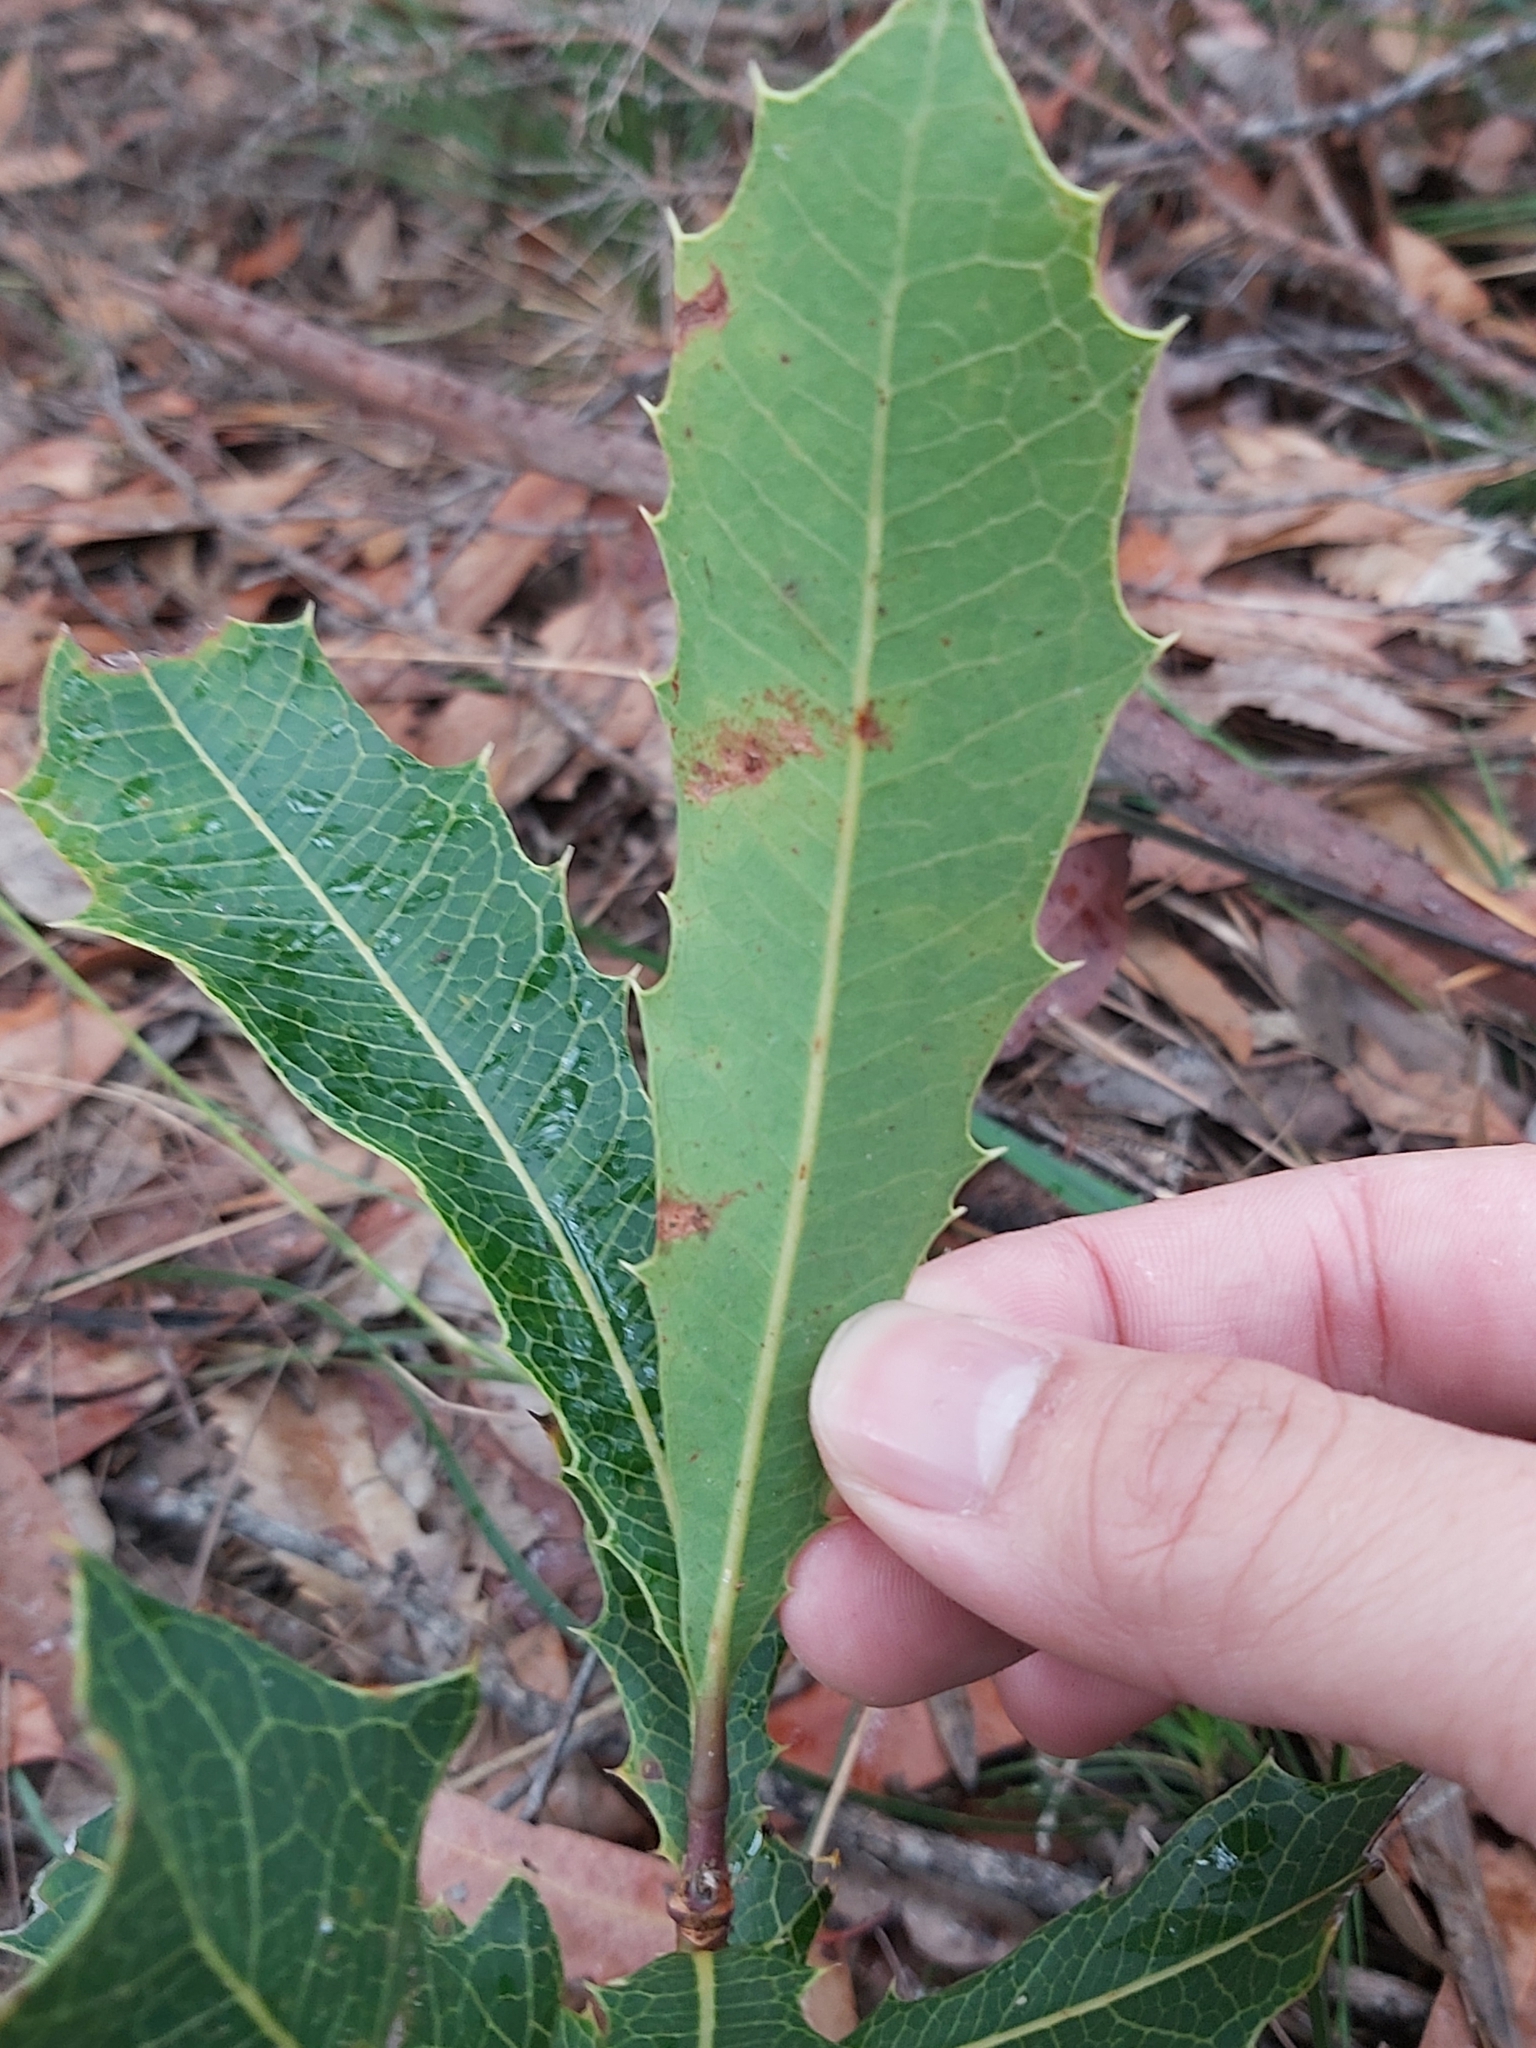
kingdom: Plantae
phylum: Tracheophyta
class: Magnoliopsida
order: Proteales
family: Proteaceae
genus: Xylomelum
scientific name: Xylomelum pyriforme
